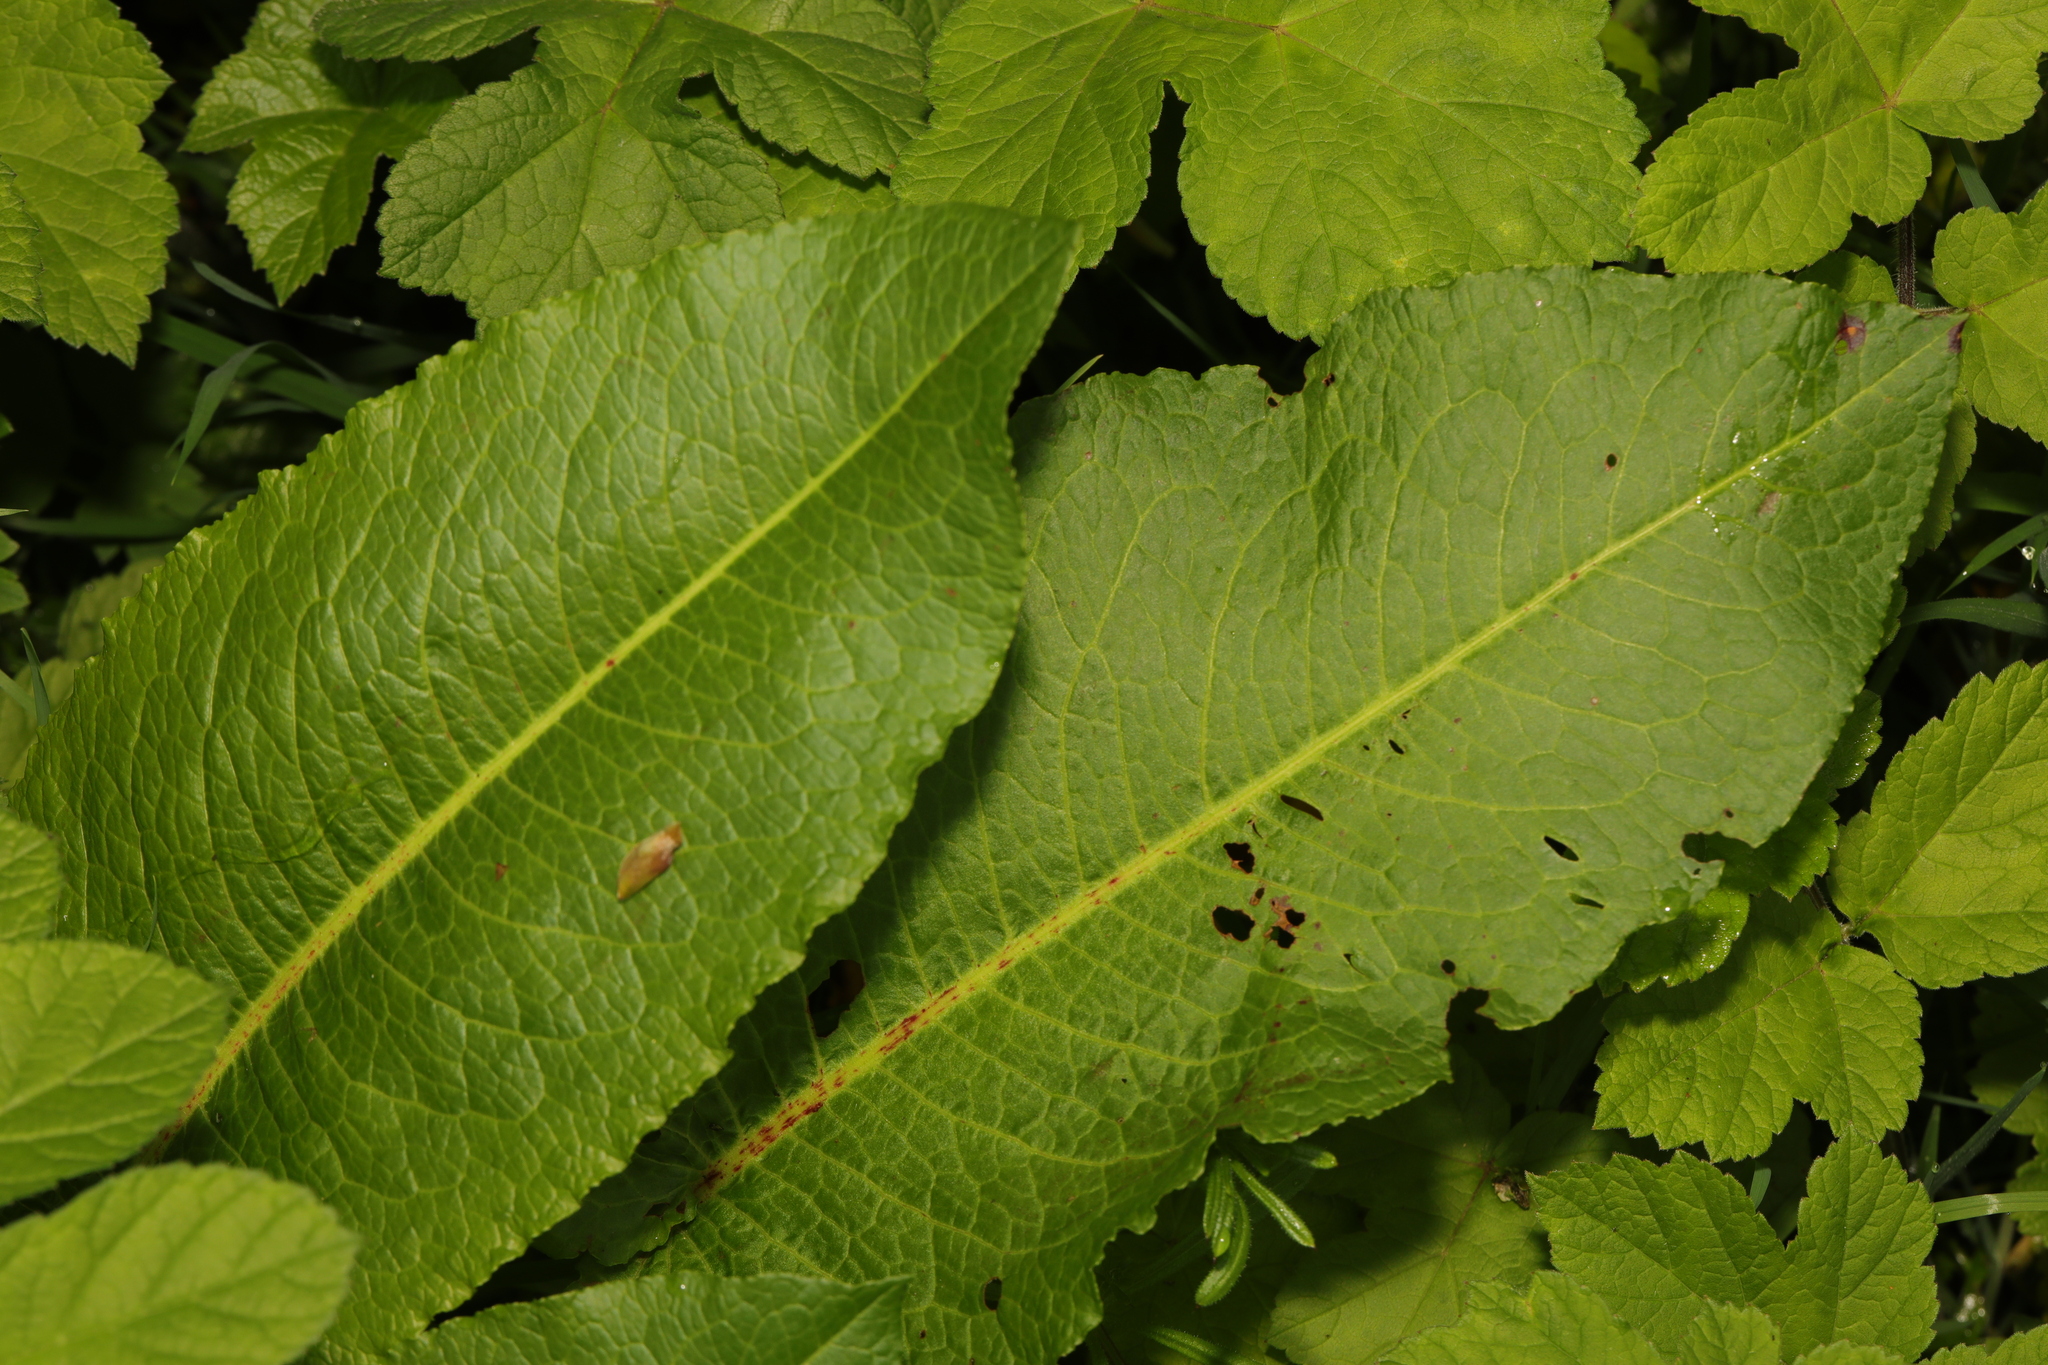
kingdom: Plantae
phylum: Tracheophyta
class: Magnoliopsida
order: Caryophyllales
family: Polygonaceae
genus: Rumex
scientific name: Rumex obtusifolius
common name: Bitter dock
